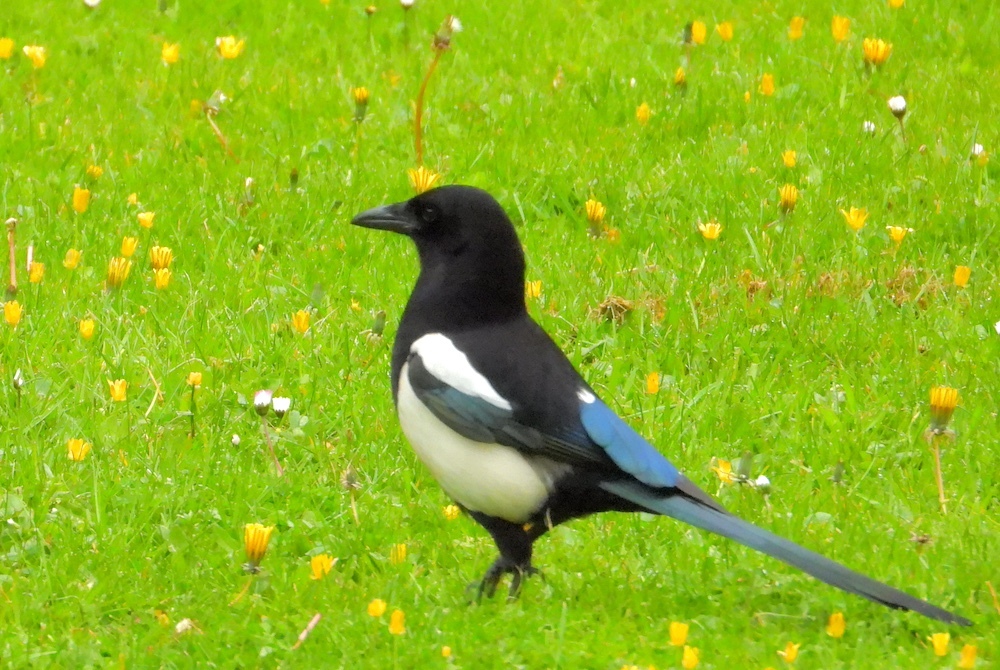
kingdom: Animalia
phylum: Chordata
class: Aves
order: Passeriformes
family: Corvidae
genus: Pica
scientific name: Pica pica
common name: Eurasian magpie
